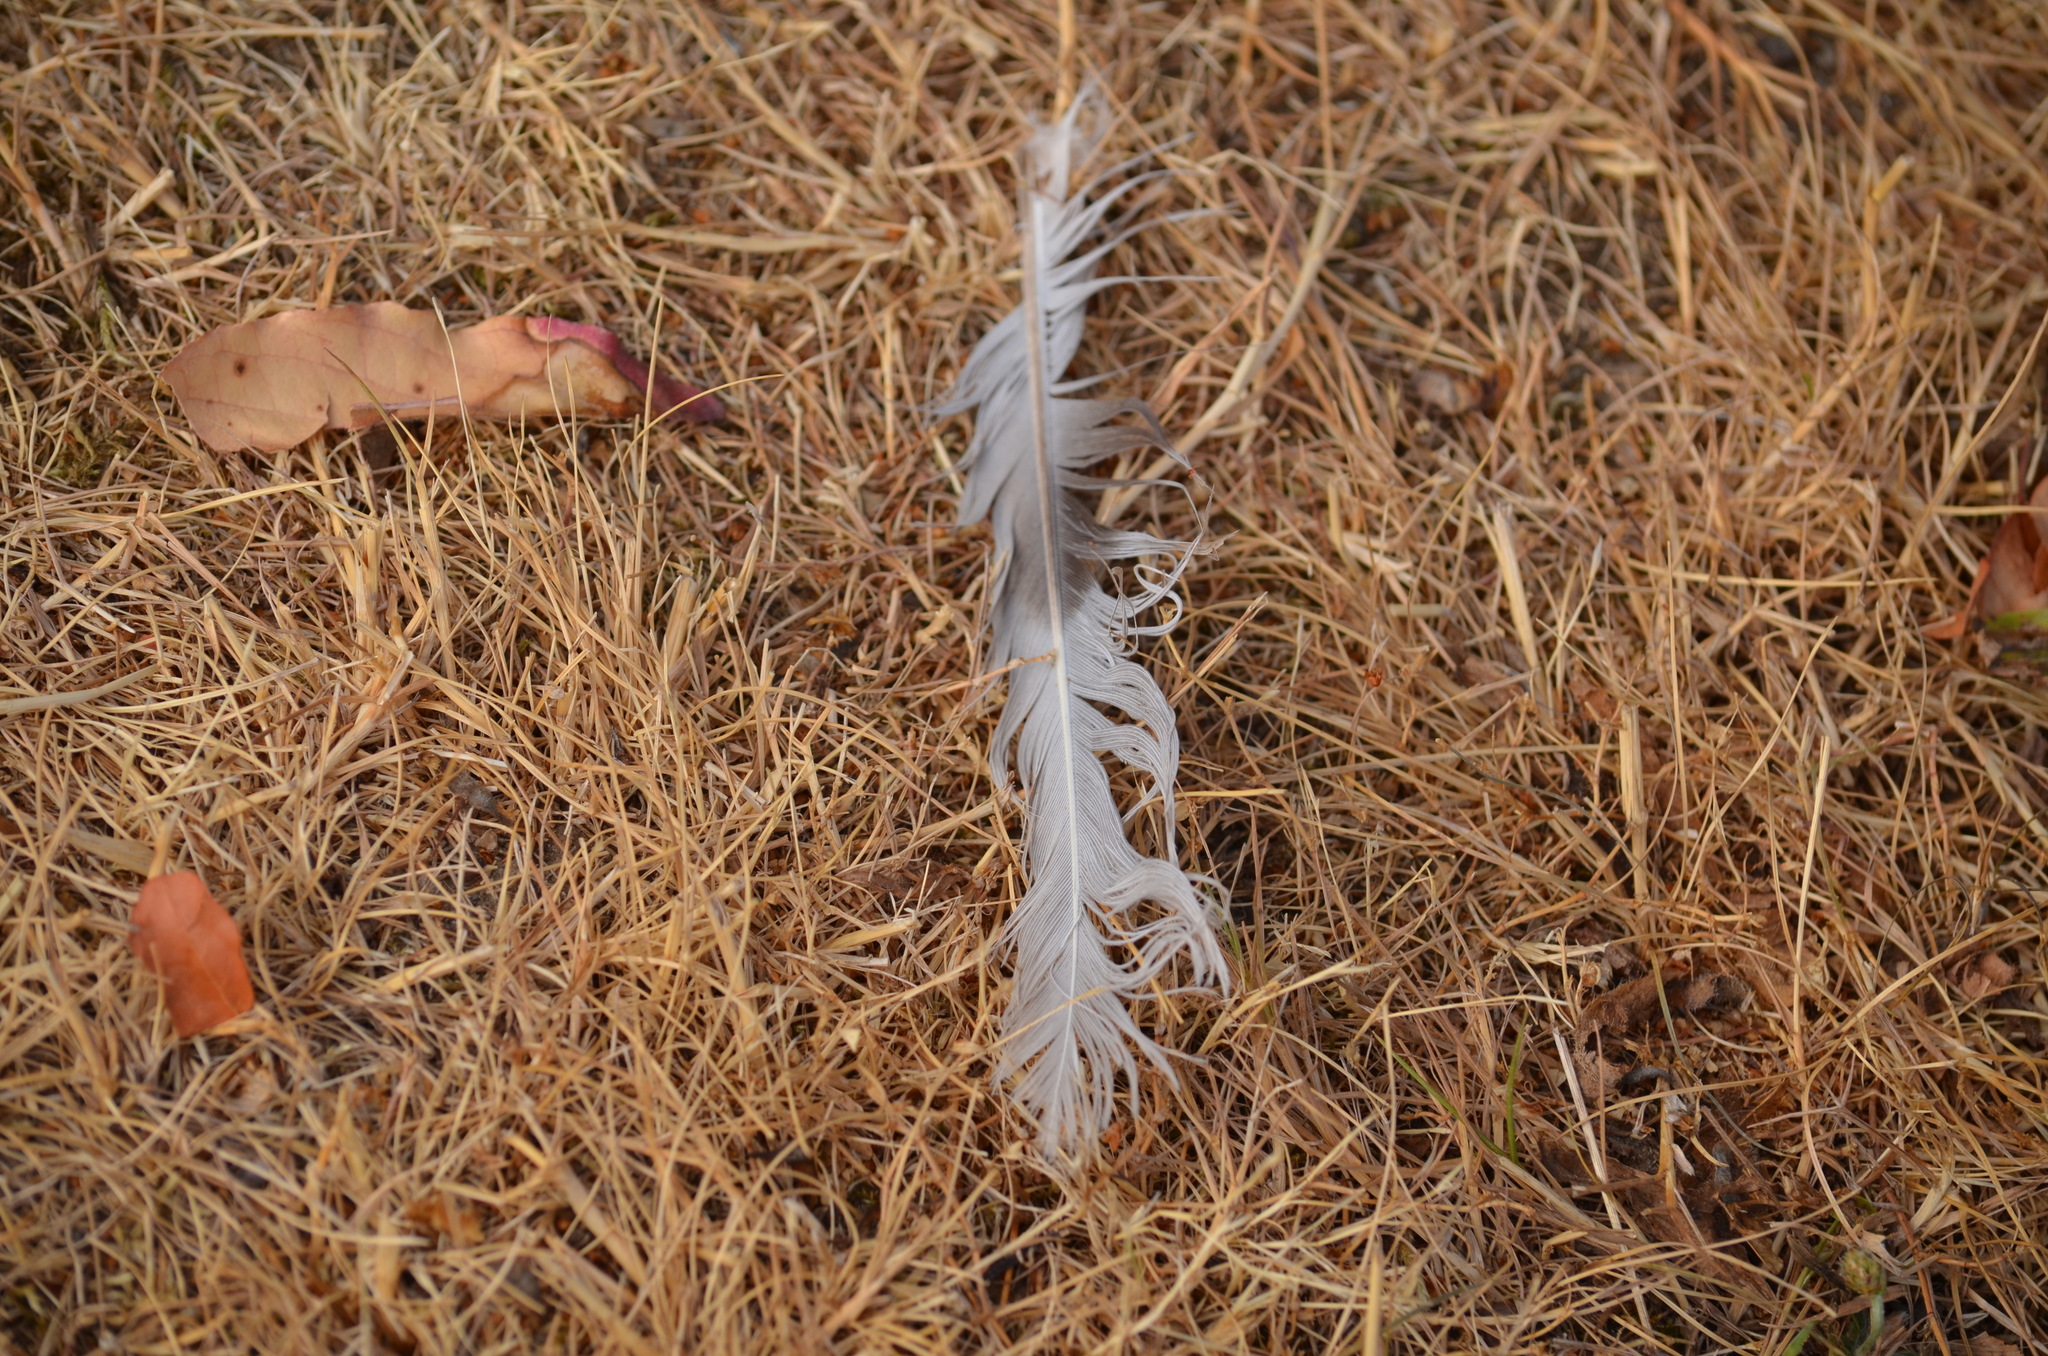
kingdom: Animalia
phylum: Chordata
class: Aves
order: Columbiformes
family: Columbidae
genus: Streptopelia
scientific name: Streptopelia decaocto
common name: Eurasian collared dove
